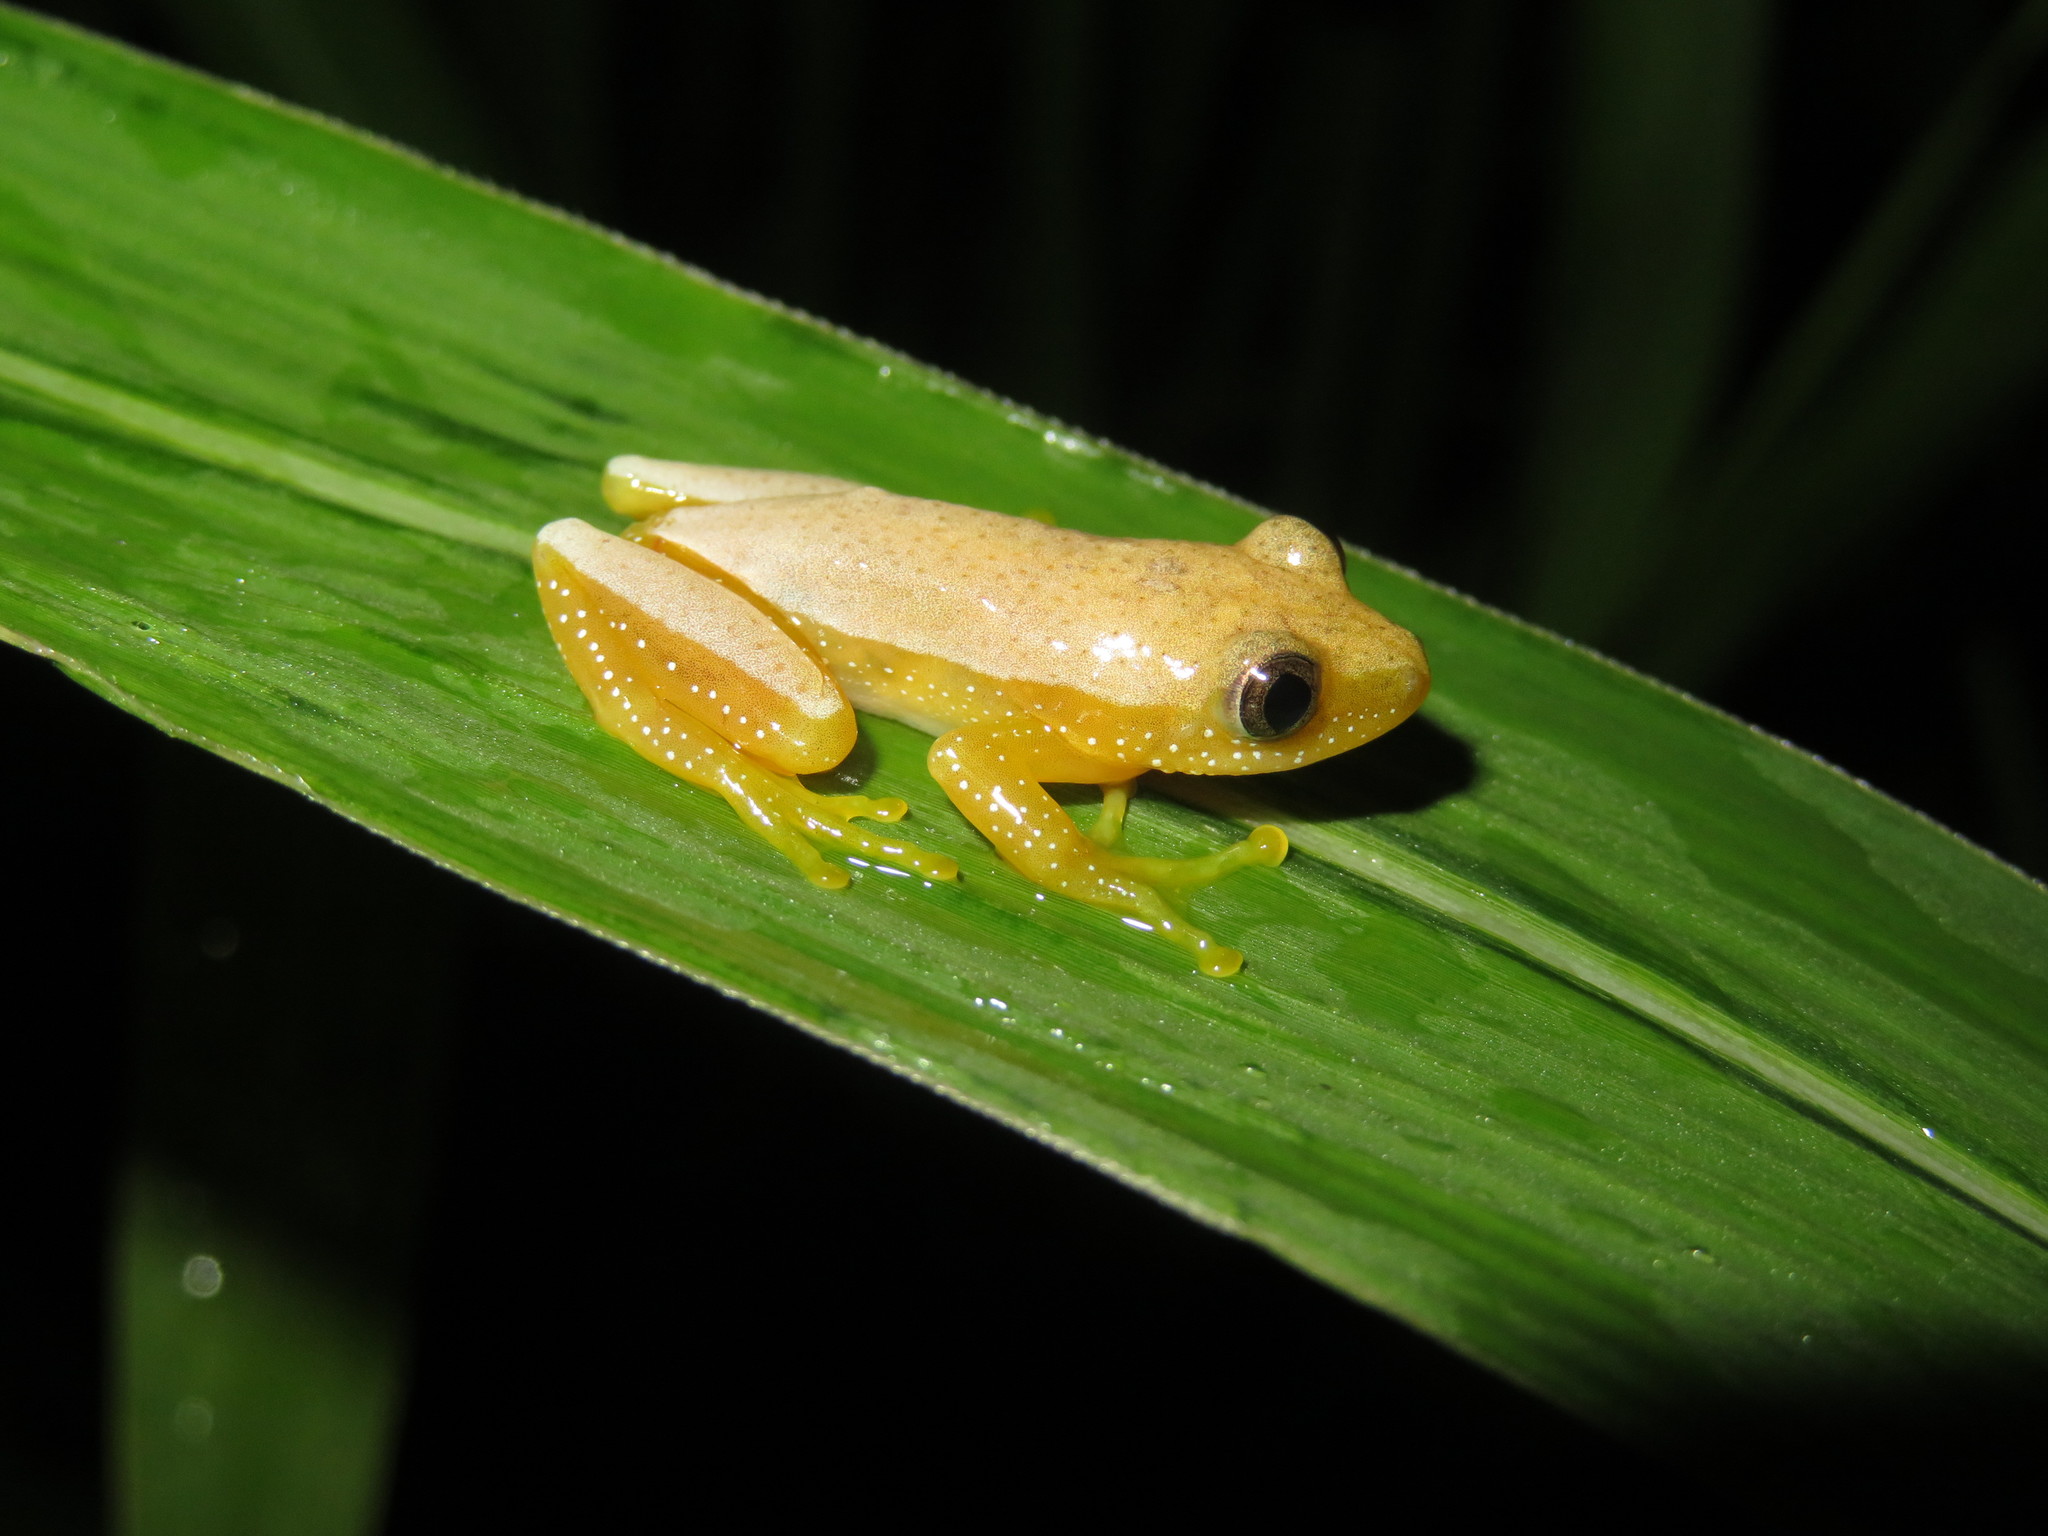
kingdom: Animalia
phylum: Chordata
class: Amphibia
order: Anura
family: Hyperoliidae
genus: Afrixalus
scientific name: Afrixalus fornasini
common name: Fornasini's spiny reed frog
